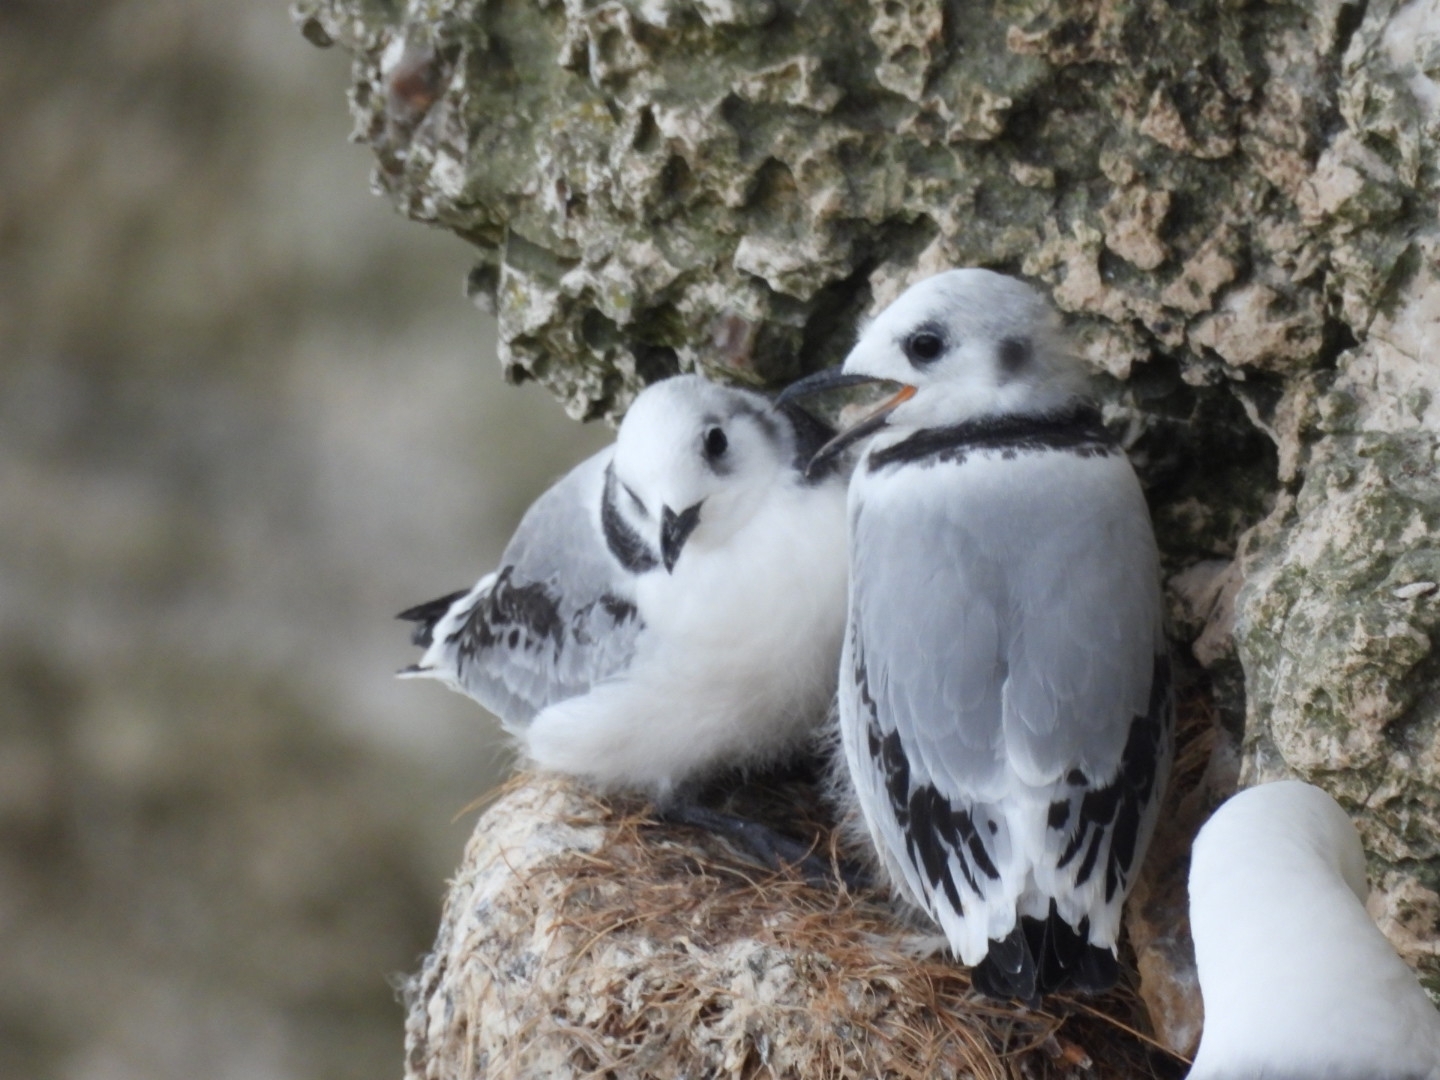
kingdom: Animalia
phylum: Chordata
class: Aves
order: Charadriiformes
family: Laridae
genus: Rissa
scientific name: Rissa tridactyla
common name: Black-legged kittiwake
